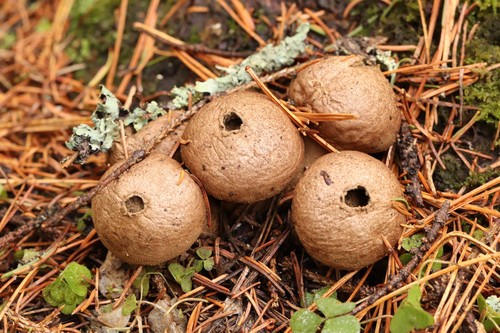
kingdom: Fungi
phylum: Basidiomycota
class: Agaricomycetes
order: Agaricales
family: Lycoperdaceae
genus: Lycoperdon
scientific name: Lycoperdon perlatum
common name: Common puffball
